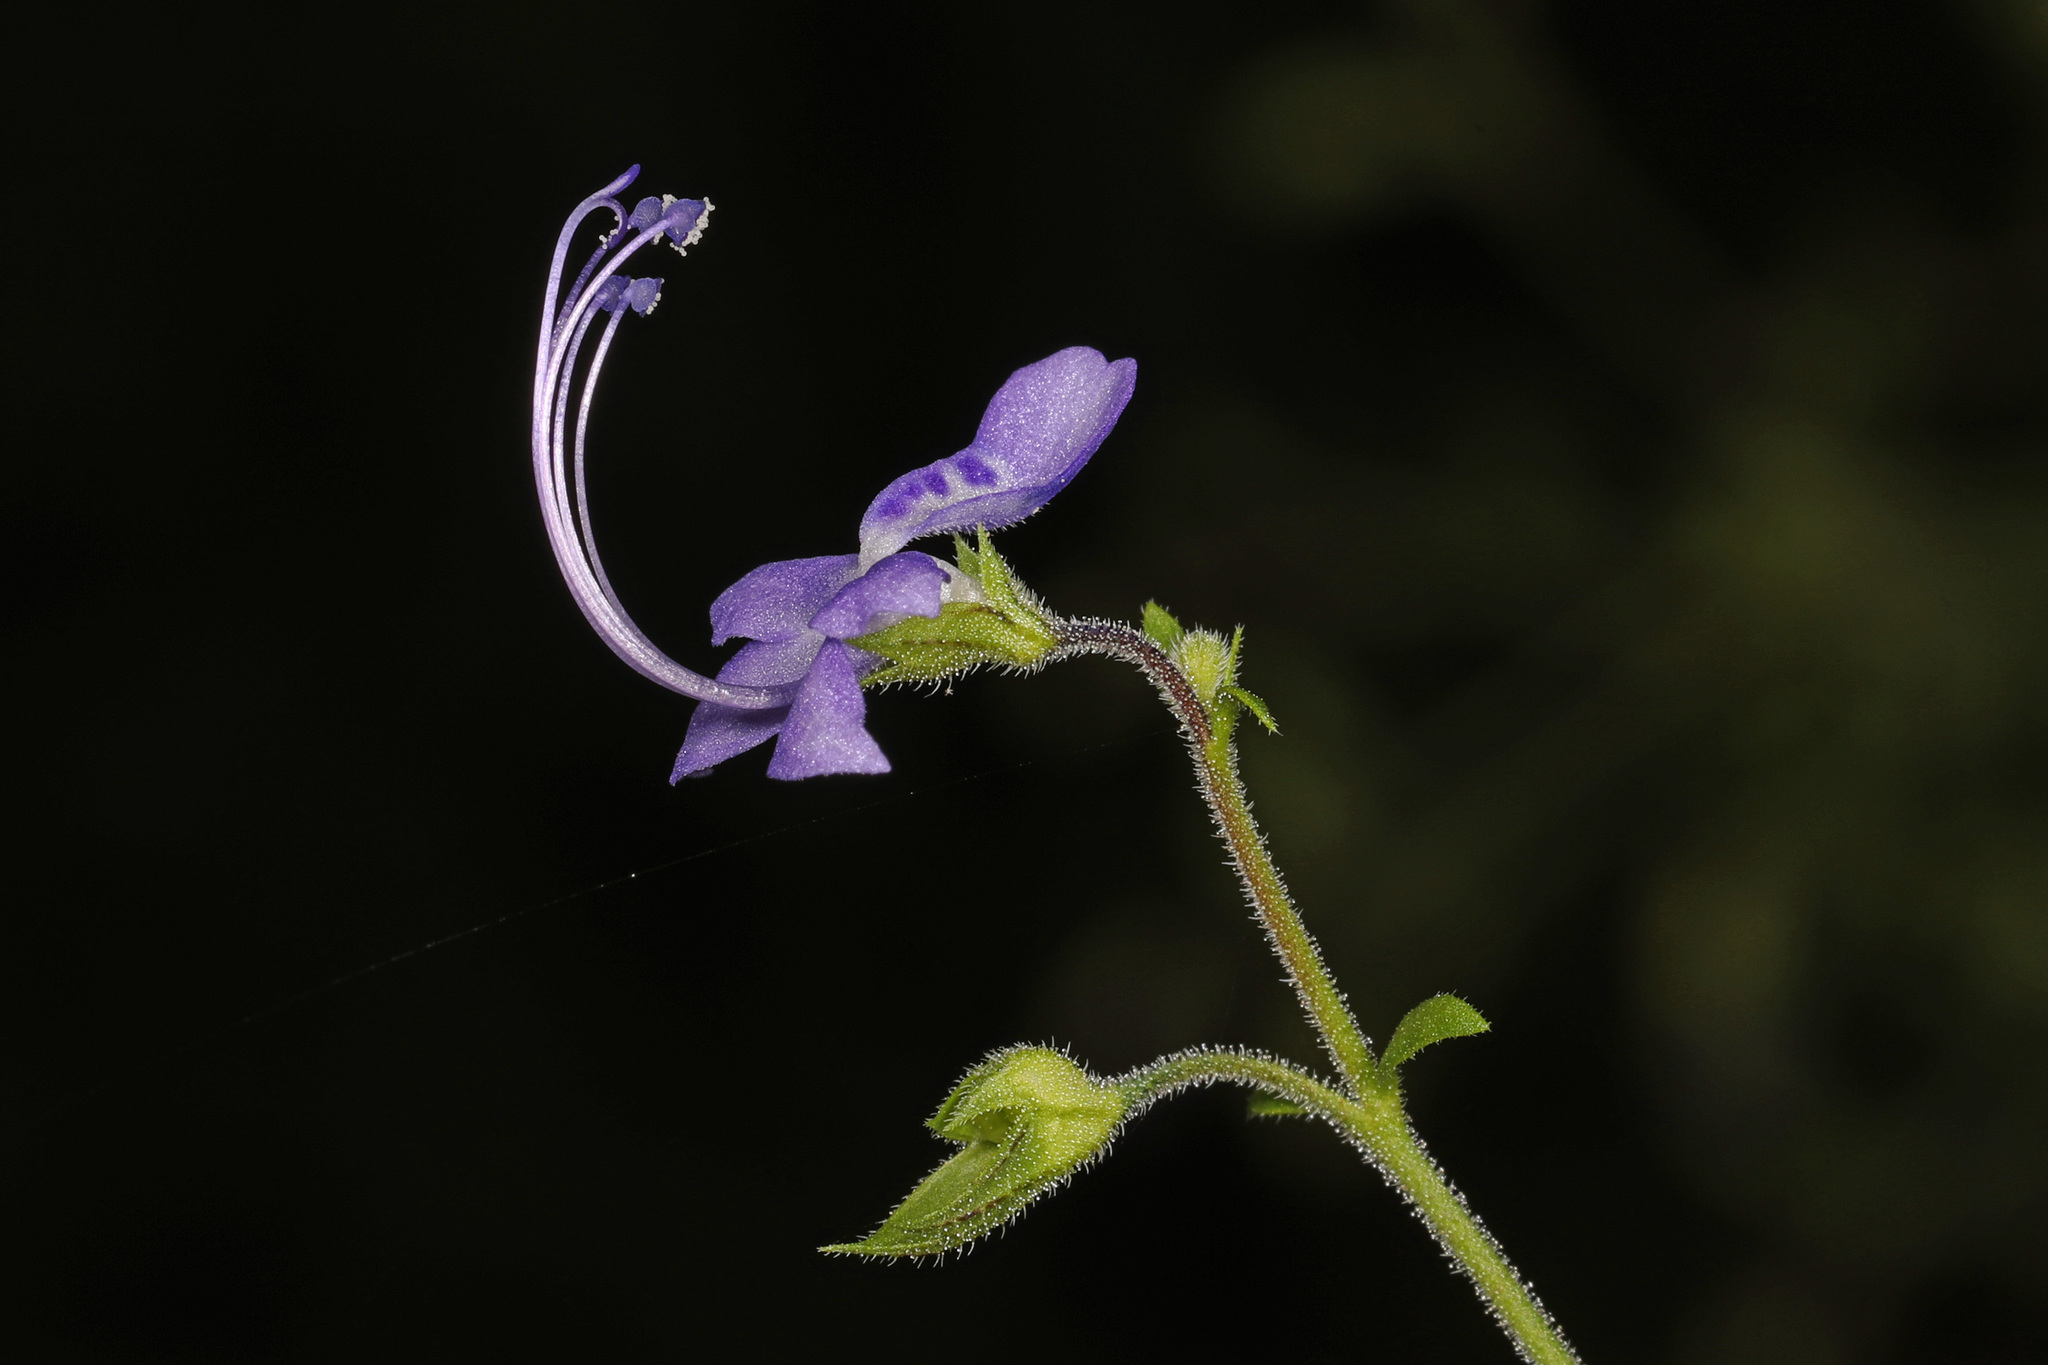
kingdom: Plantae
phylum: Tracheophyta
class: Magnoliopsida
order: Lamiales
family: Lamiaceae
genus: Trichostema
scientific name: Trichostema dichotomum
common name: Bastard pennyroyal
